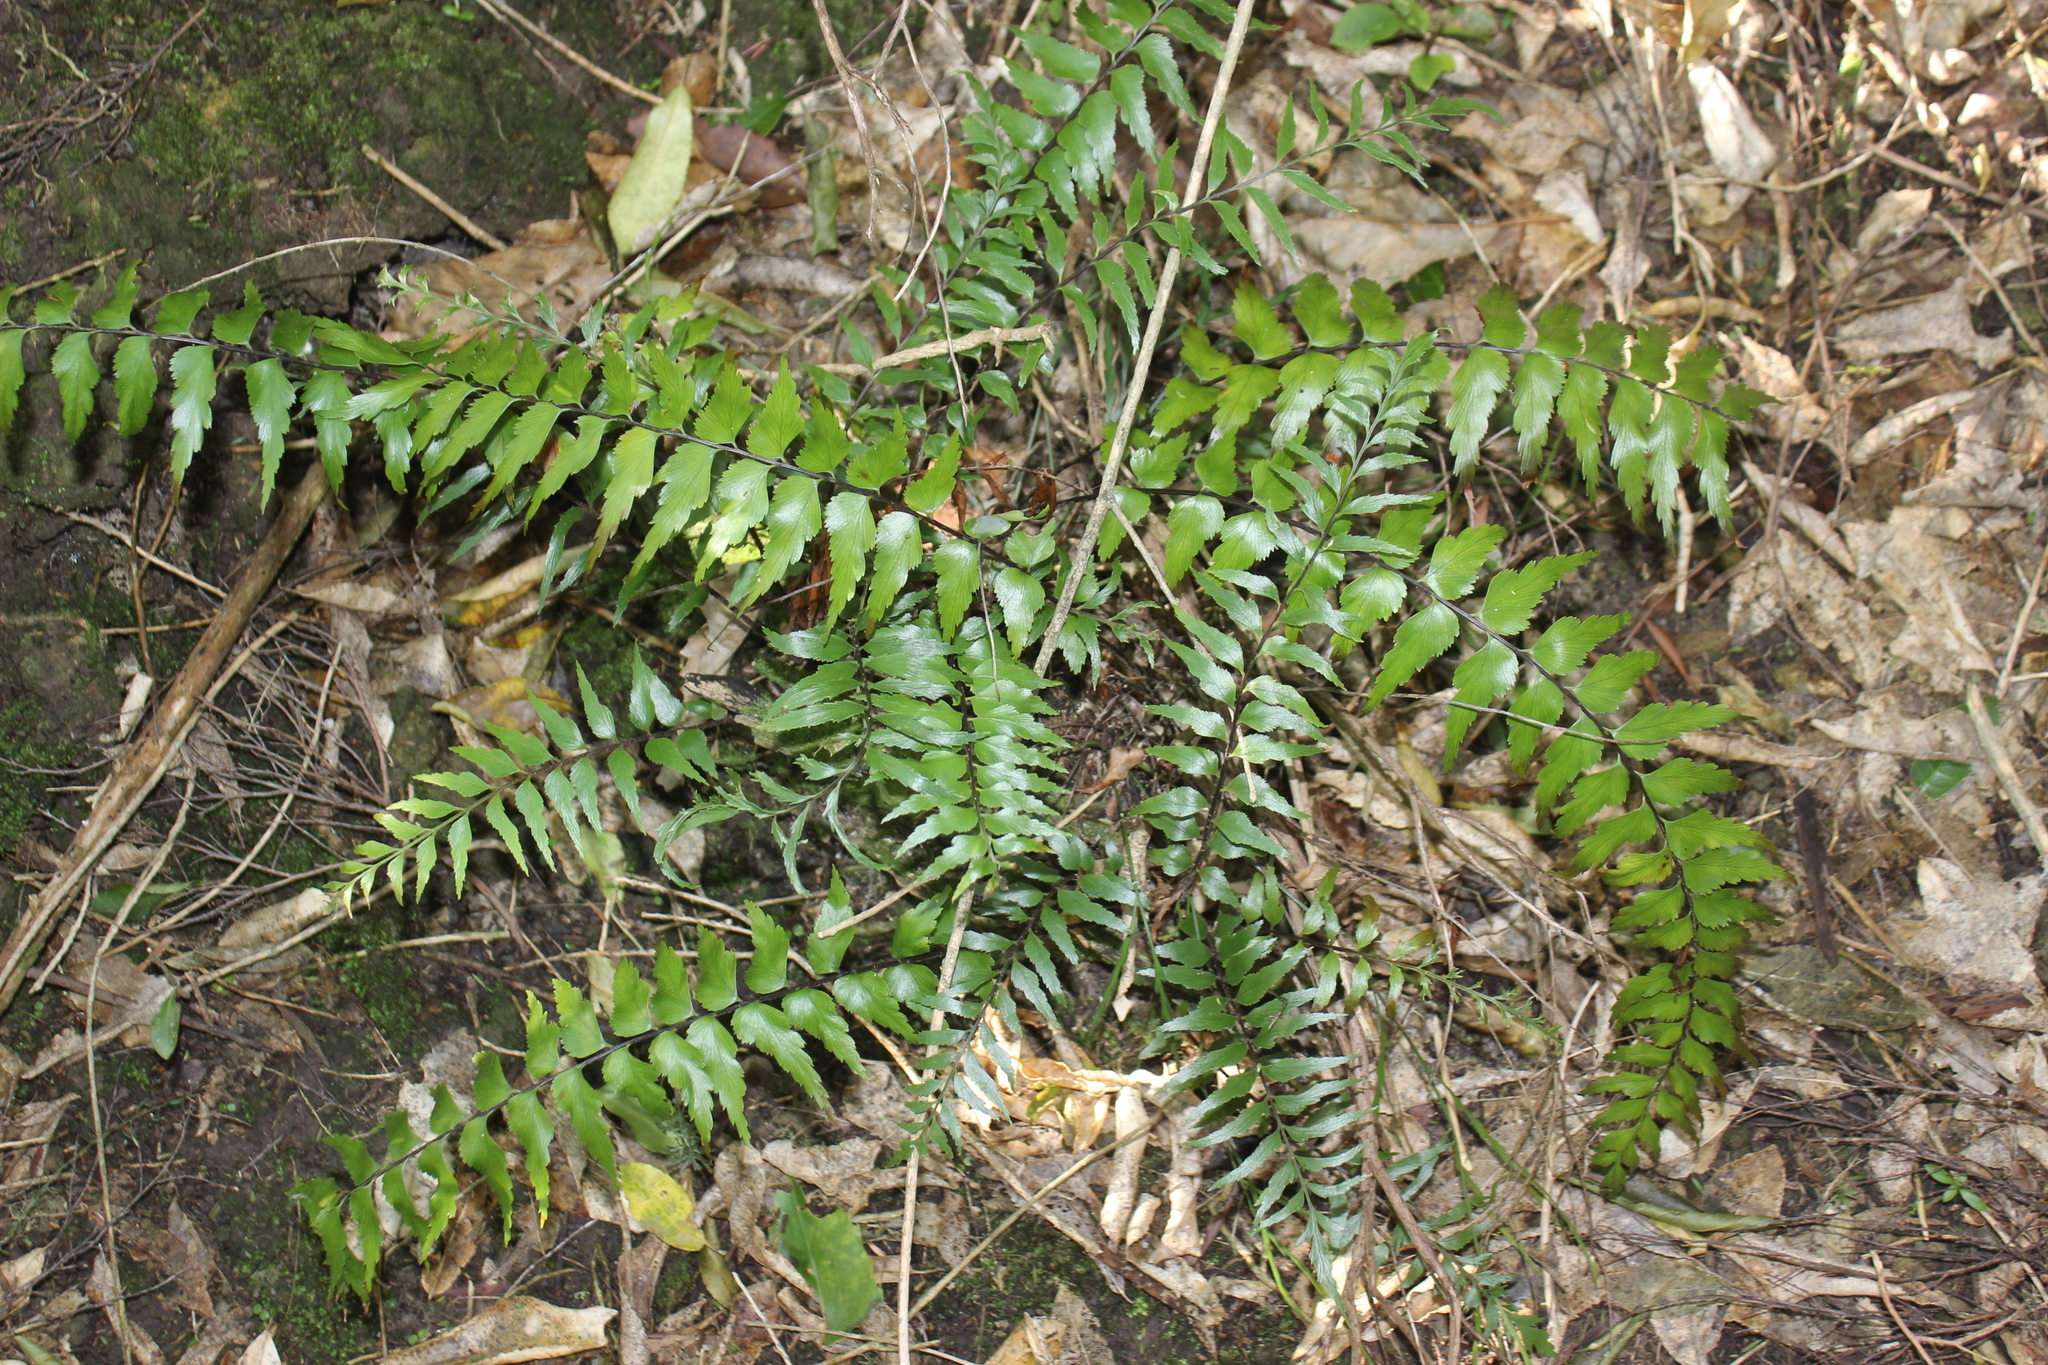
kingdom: Plantae
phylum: Tracheophyta
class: Polypodiopsida
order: Polypodiales
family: Aspleniaceae
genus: Asplenium
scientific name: Asplenium polyodon
